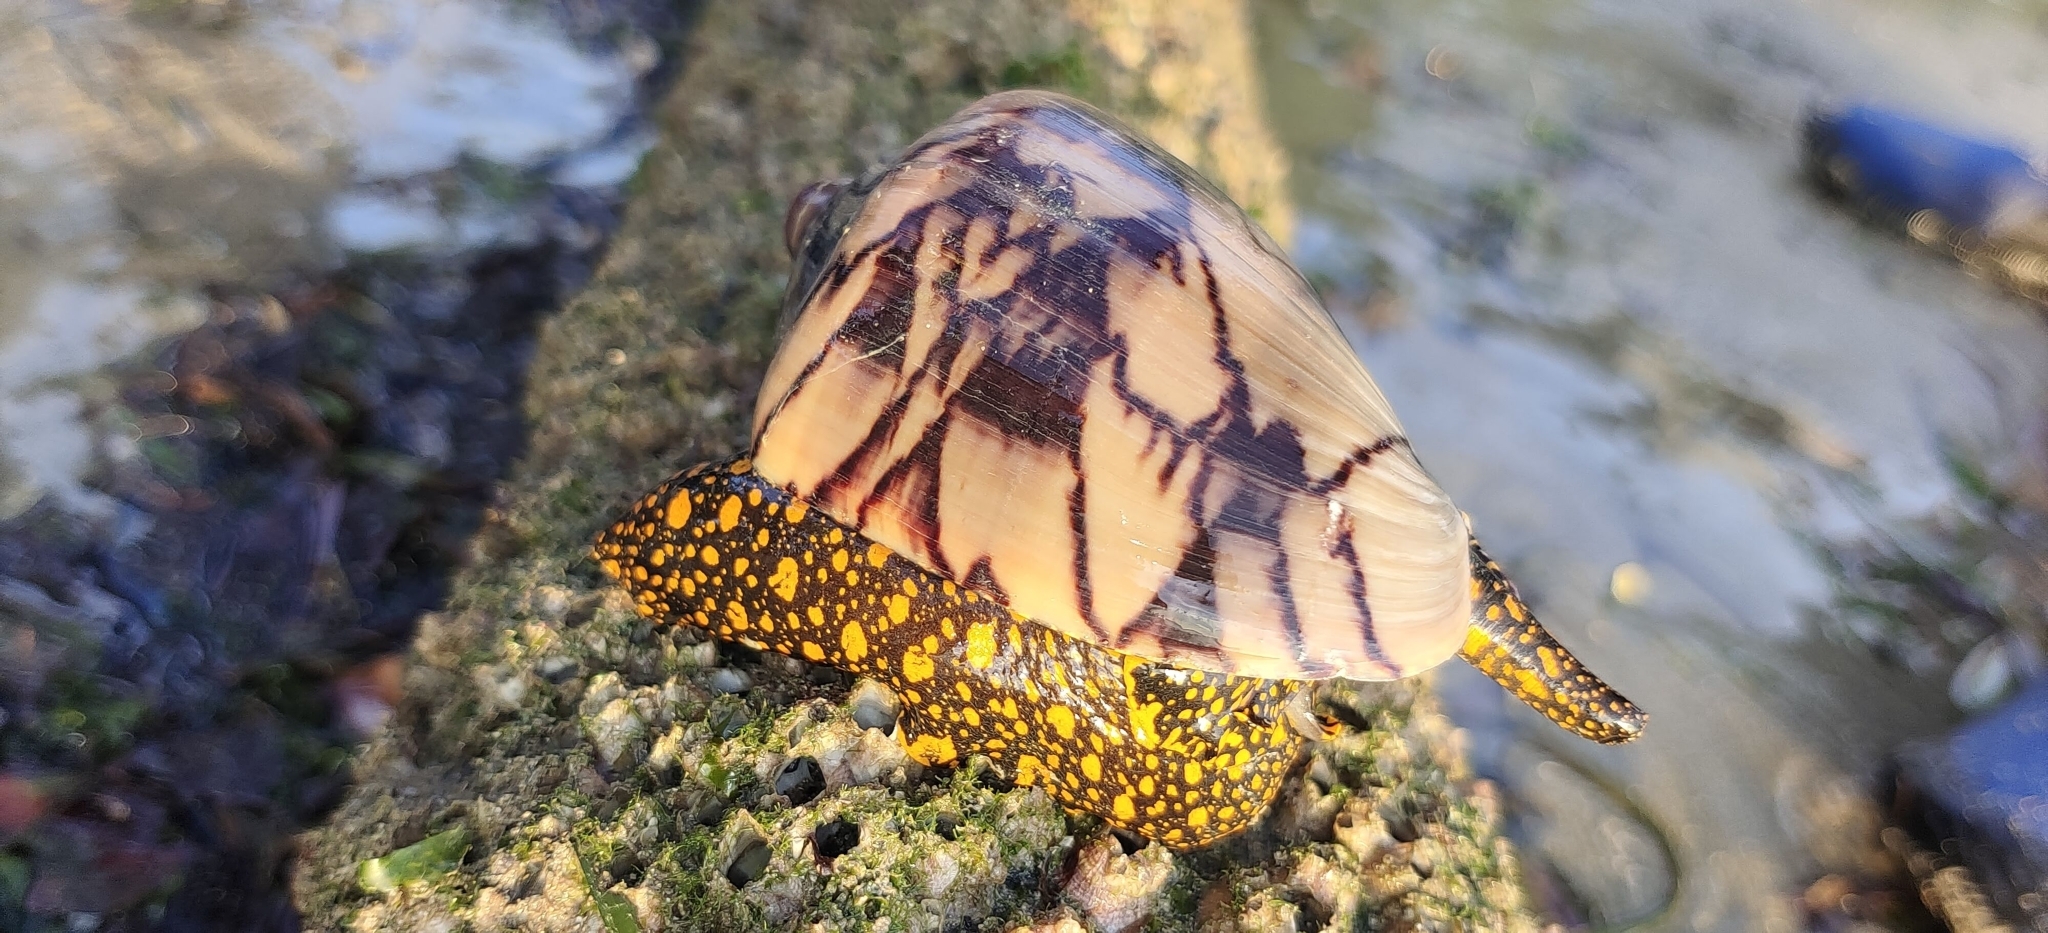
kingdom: Animalia
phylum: Mollusca
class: Gastropoda
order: Neogastropoda
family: Volutidae
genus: Cymbiola
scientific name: Cymbiola nobilis
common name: Noble volute
